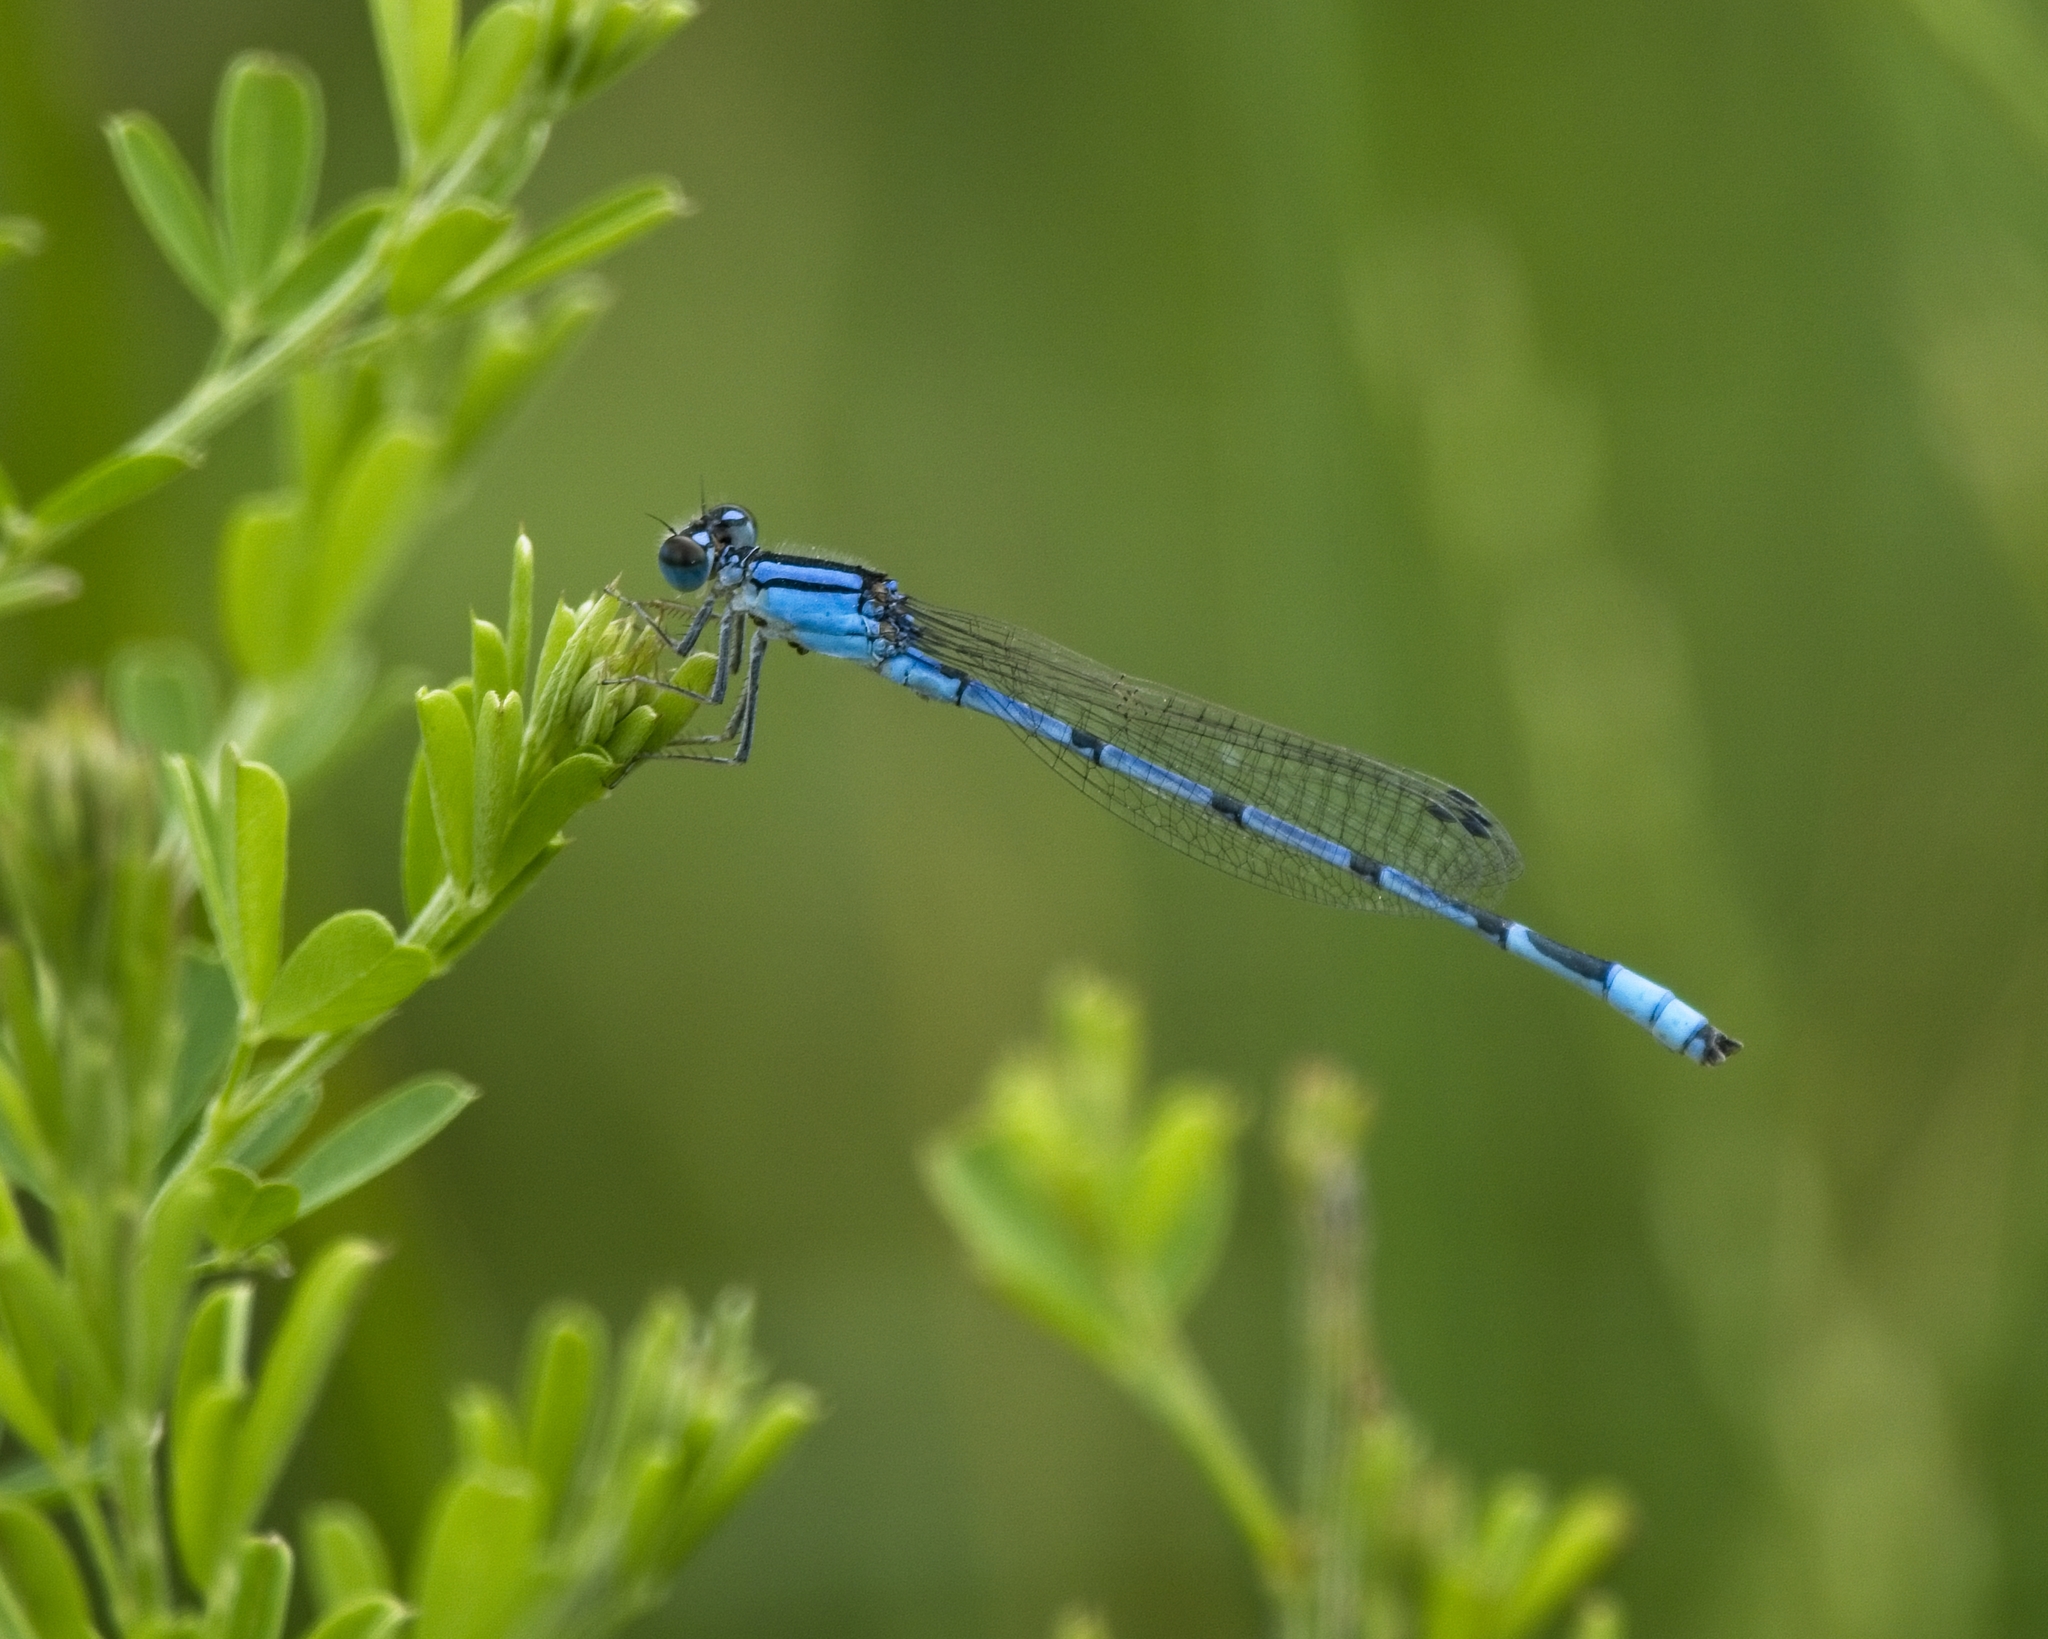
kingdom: Animalia
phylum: Arthropoda
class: Insecta
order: Odonata
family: Coenagrionidae
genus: Enallagma
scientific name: Enallagma civile
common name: Damselfly
